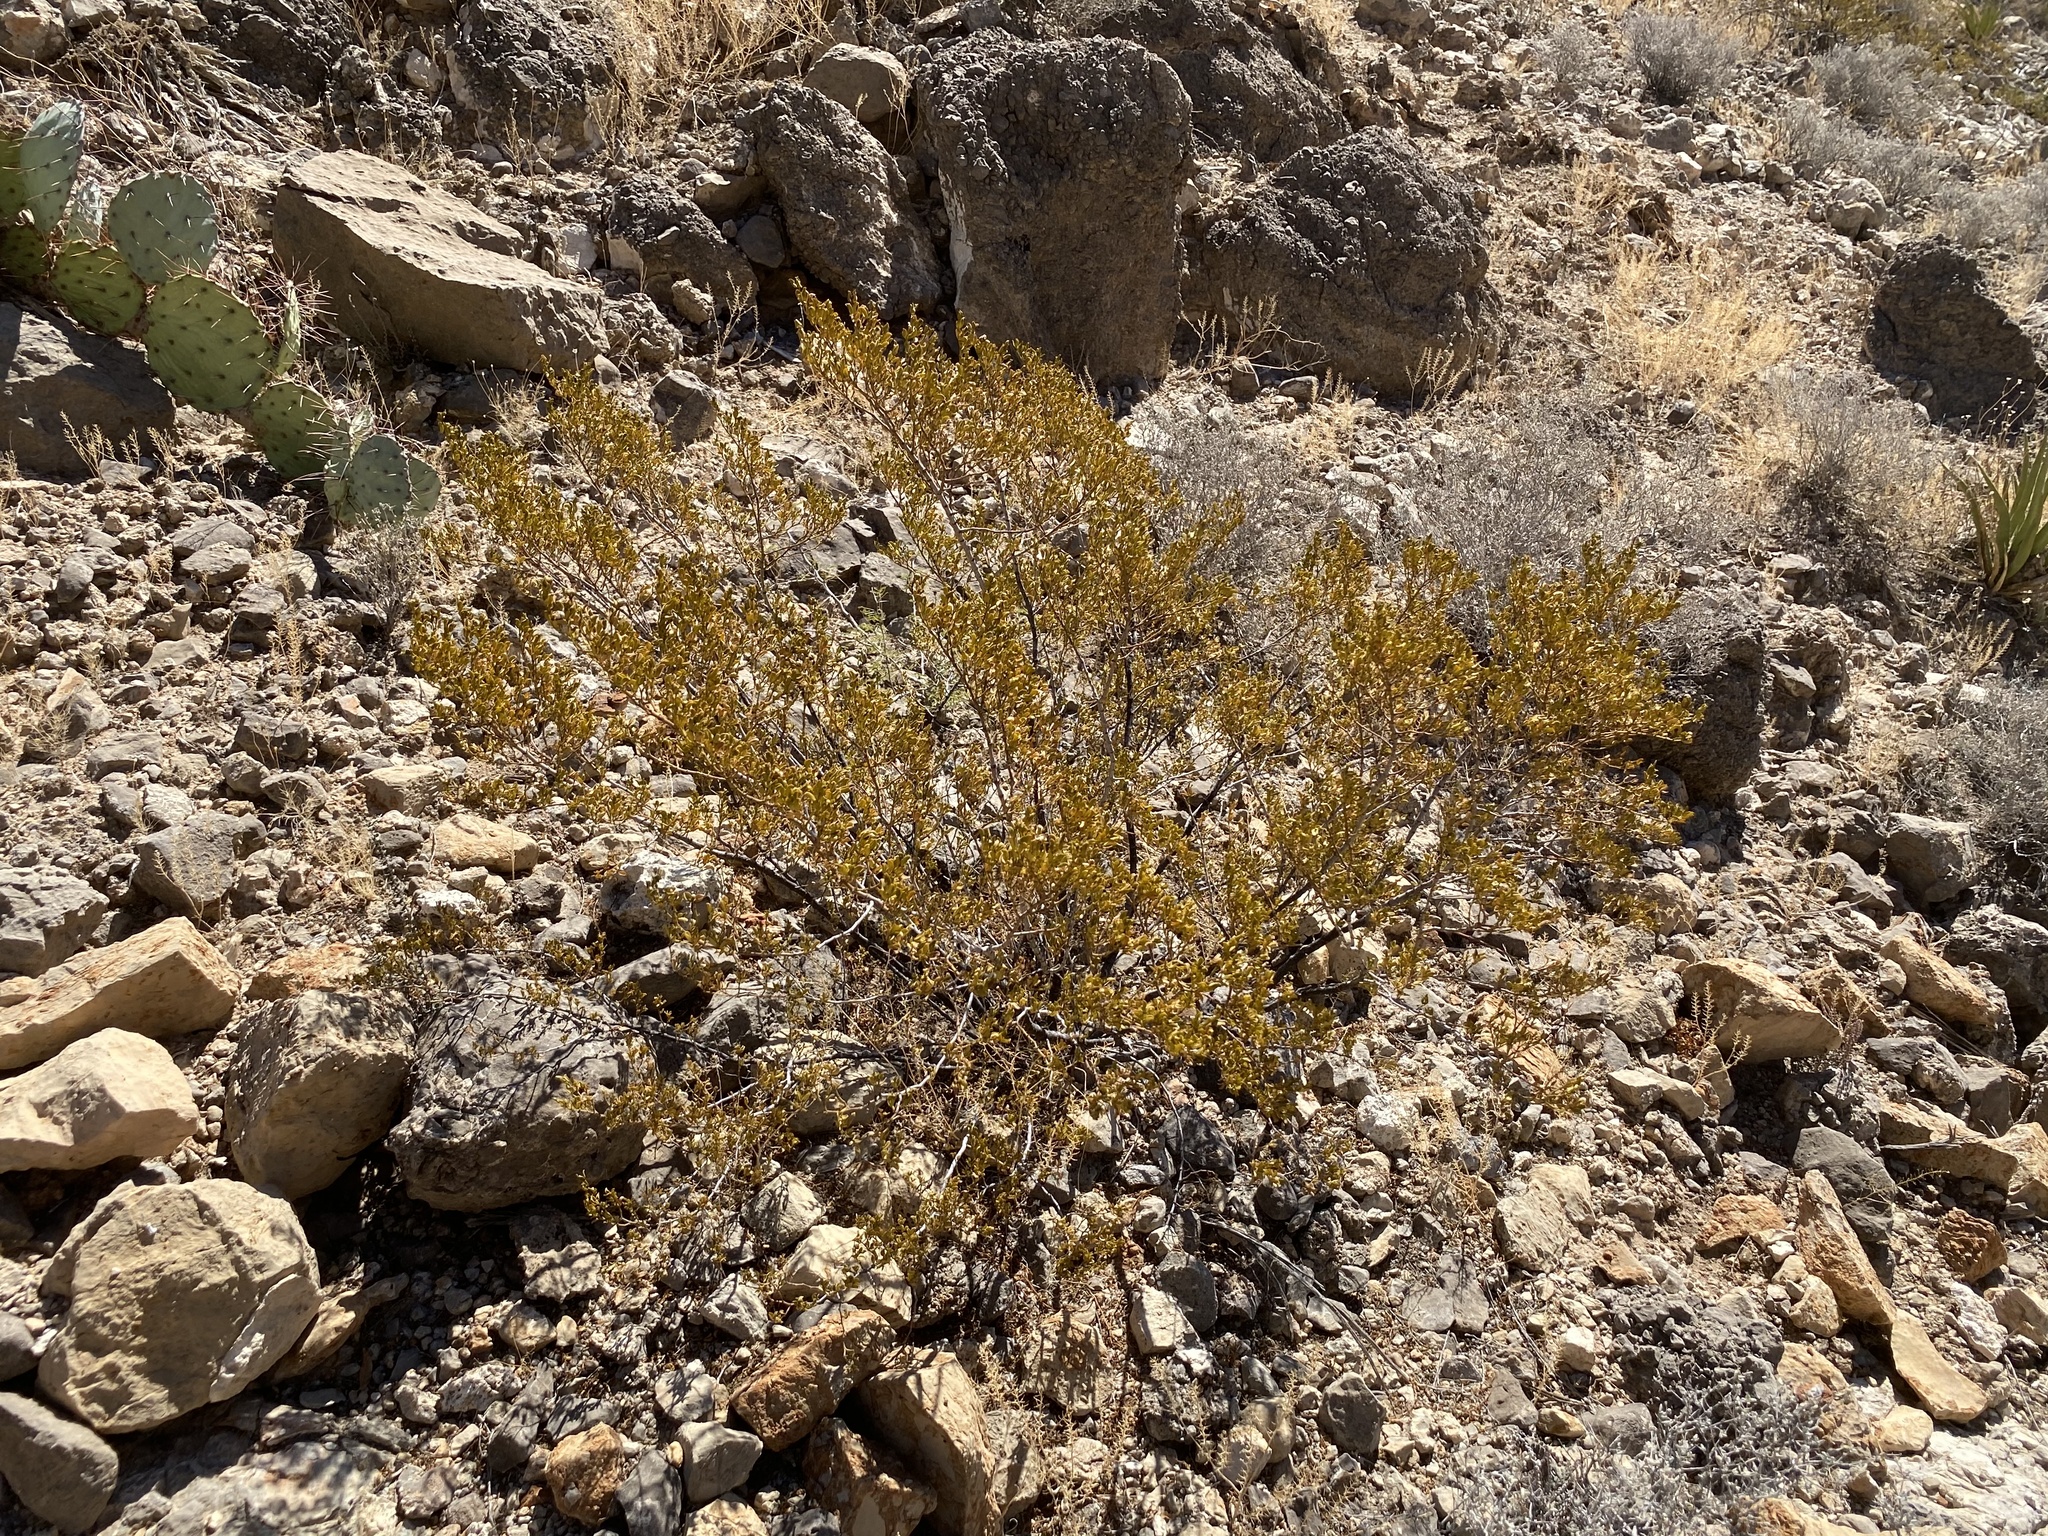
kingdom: Plantae
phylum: Tracheophyta
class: Magnoliopsida
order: Zygophyllales
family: Zygophyllaceae
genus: Larrea
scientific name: Larrea tridentata
